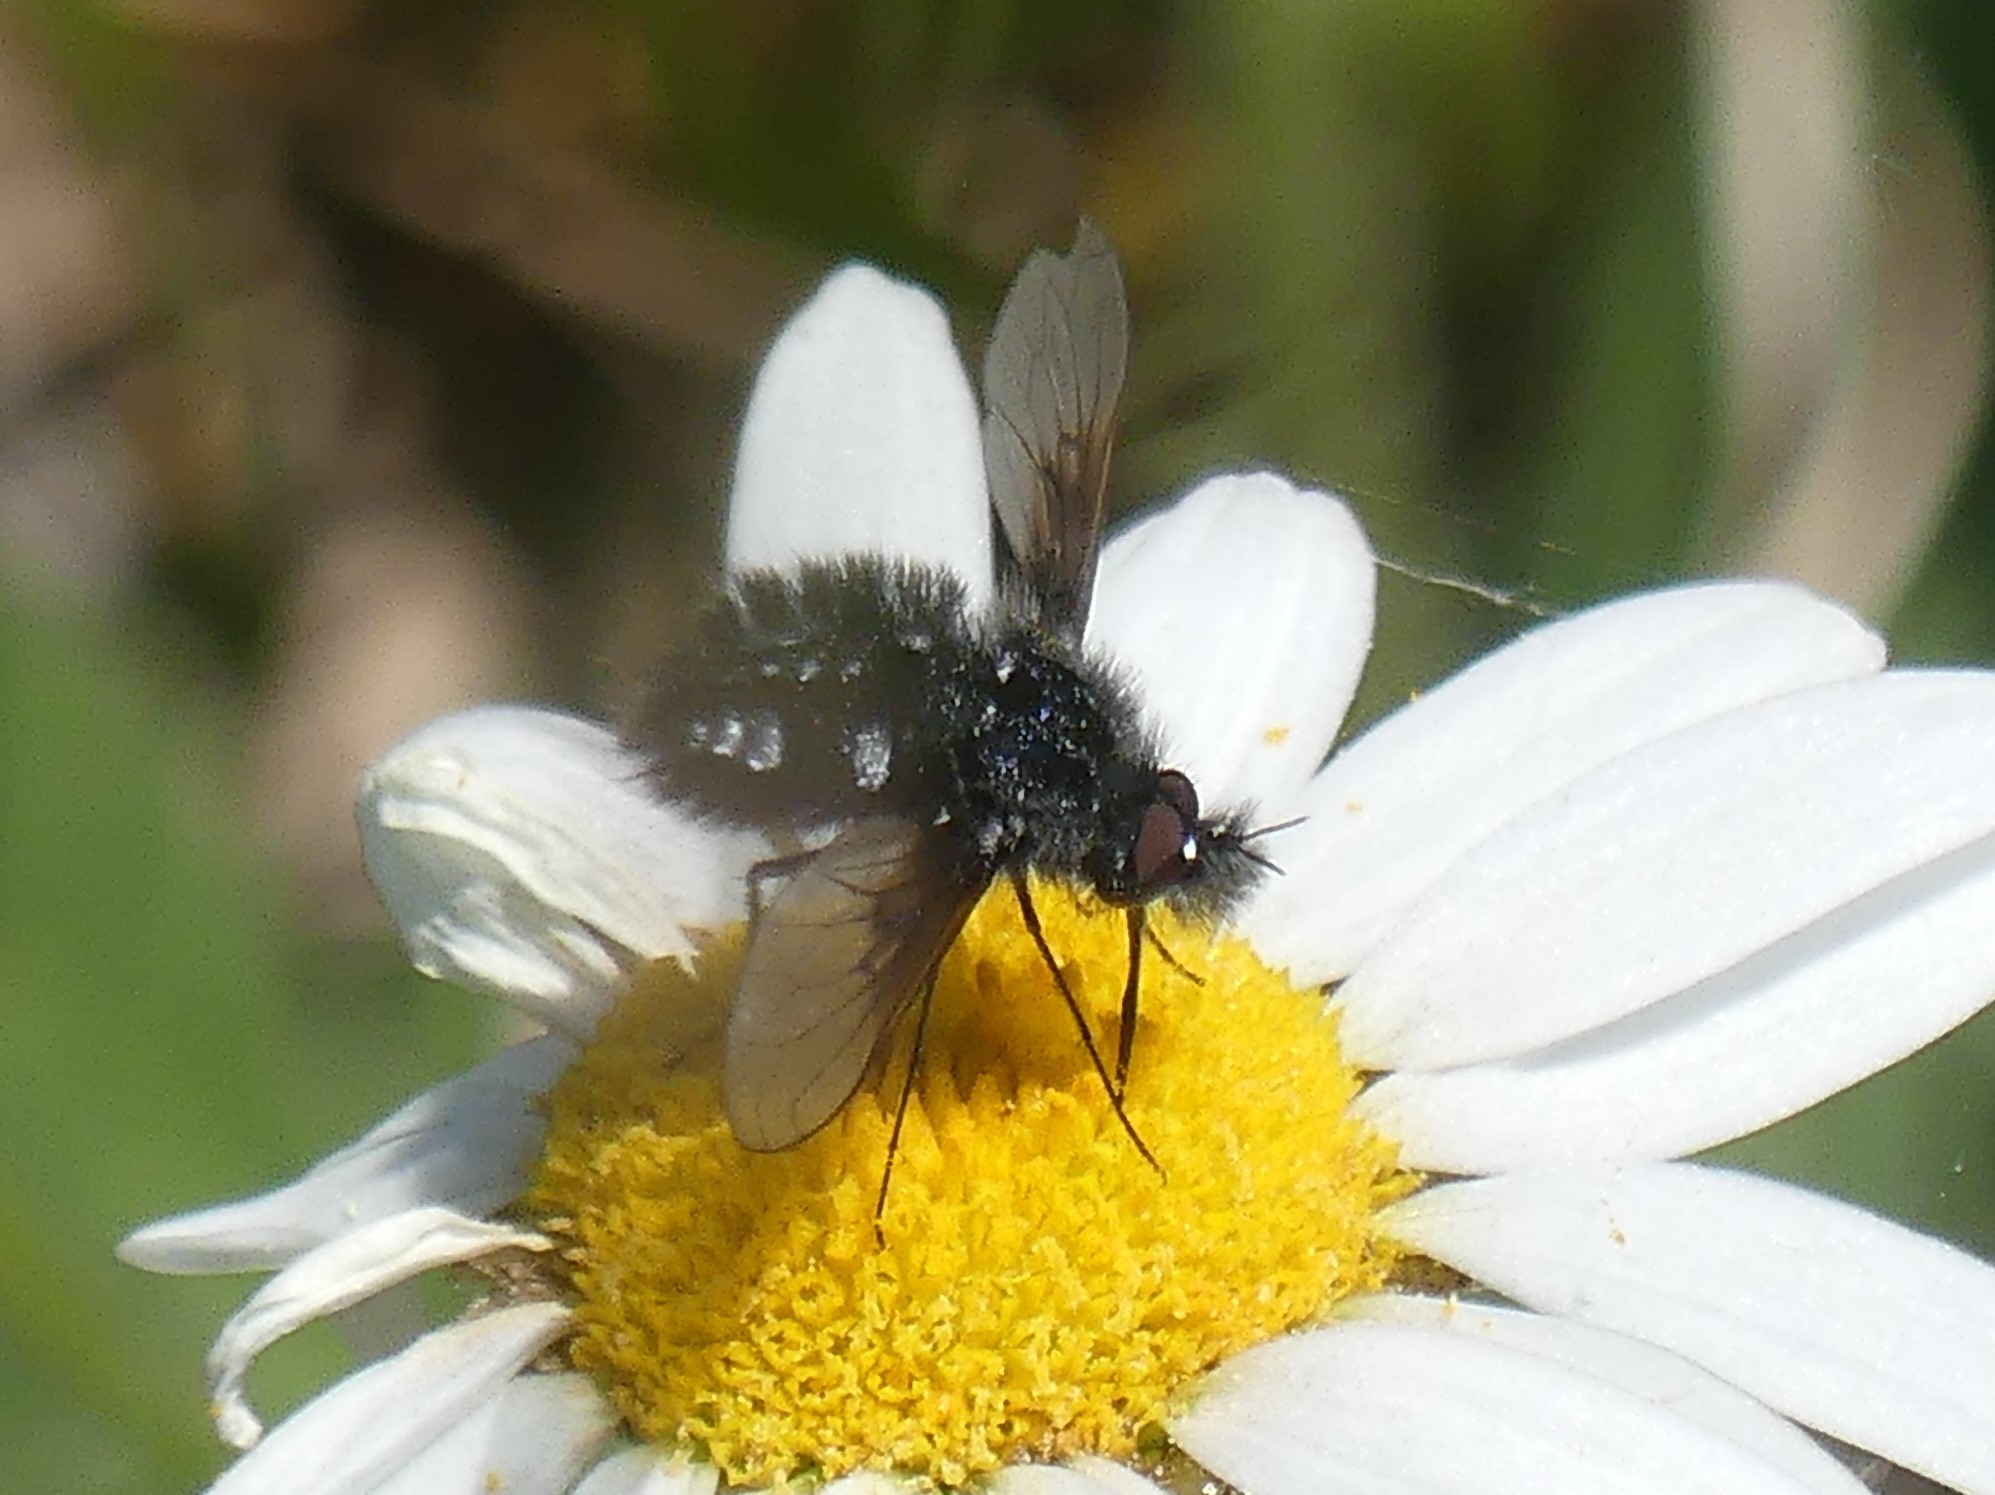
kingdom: Animalia
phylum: Arthropoda
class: Insecta
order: Diptera
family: Bombyliidae
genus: Bombylella
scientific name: Bombylella atra
